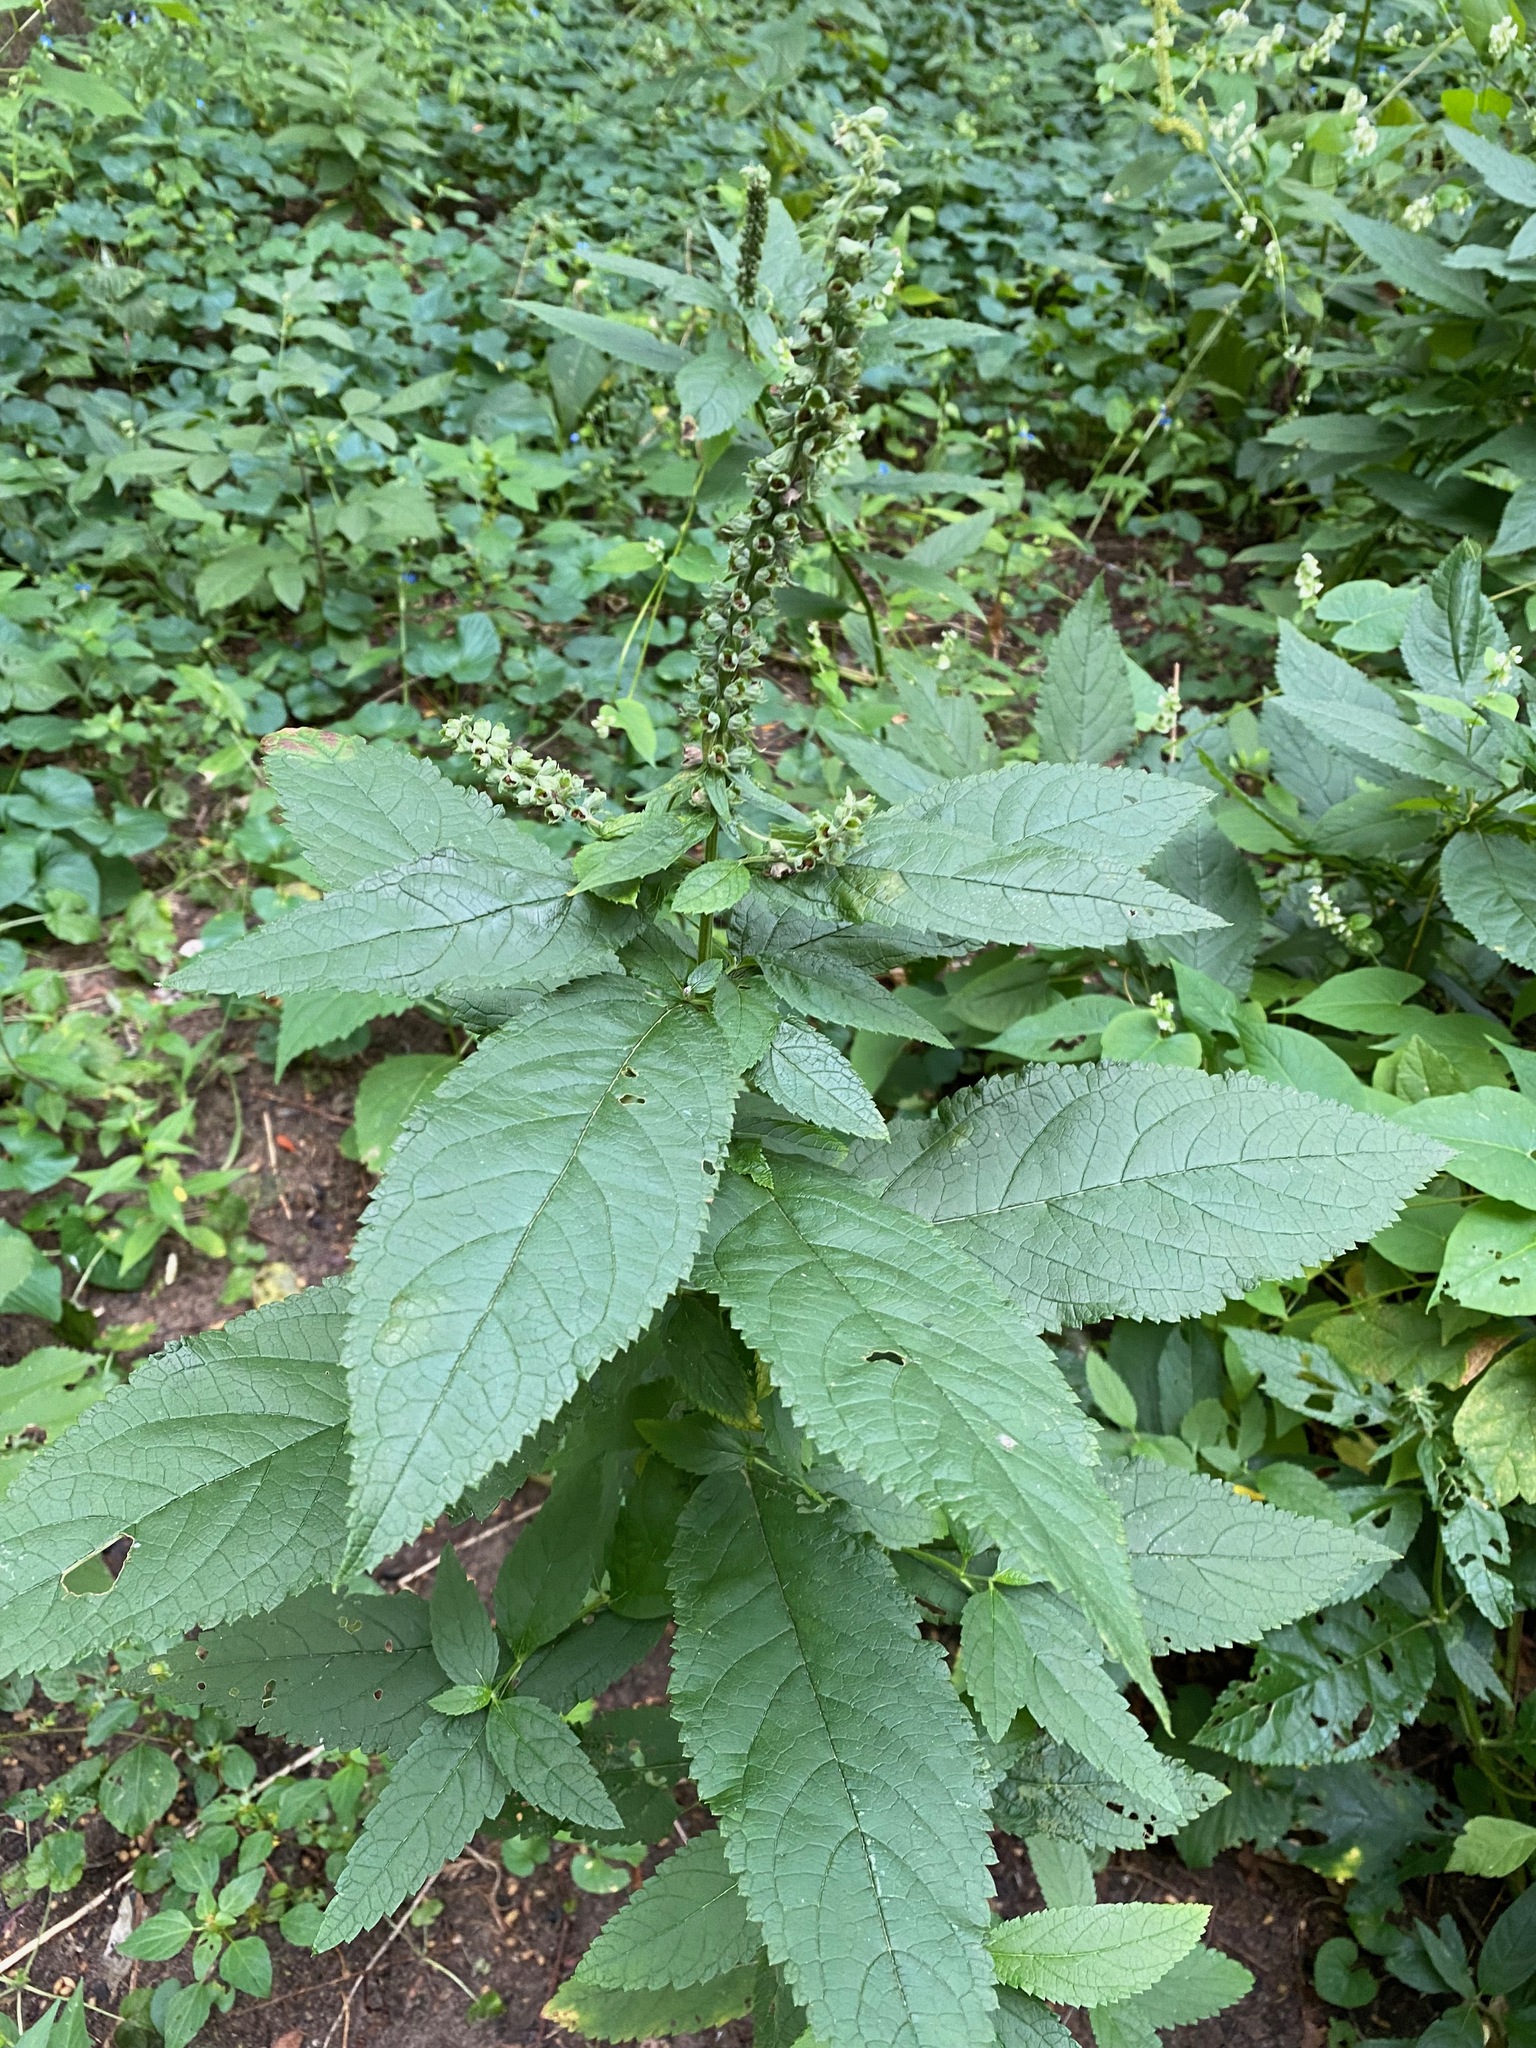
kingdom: Plantae
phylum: Tracheophyta
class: Magnoliopsida
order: Lamiales
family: Lamiaceae
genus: Teucrium
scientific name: Teucrium canadense
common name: American germander
